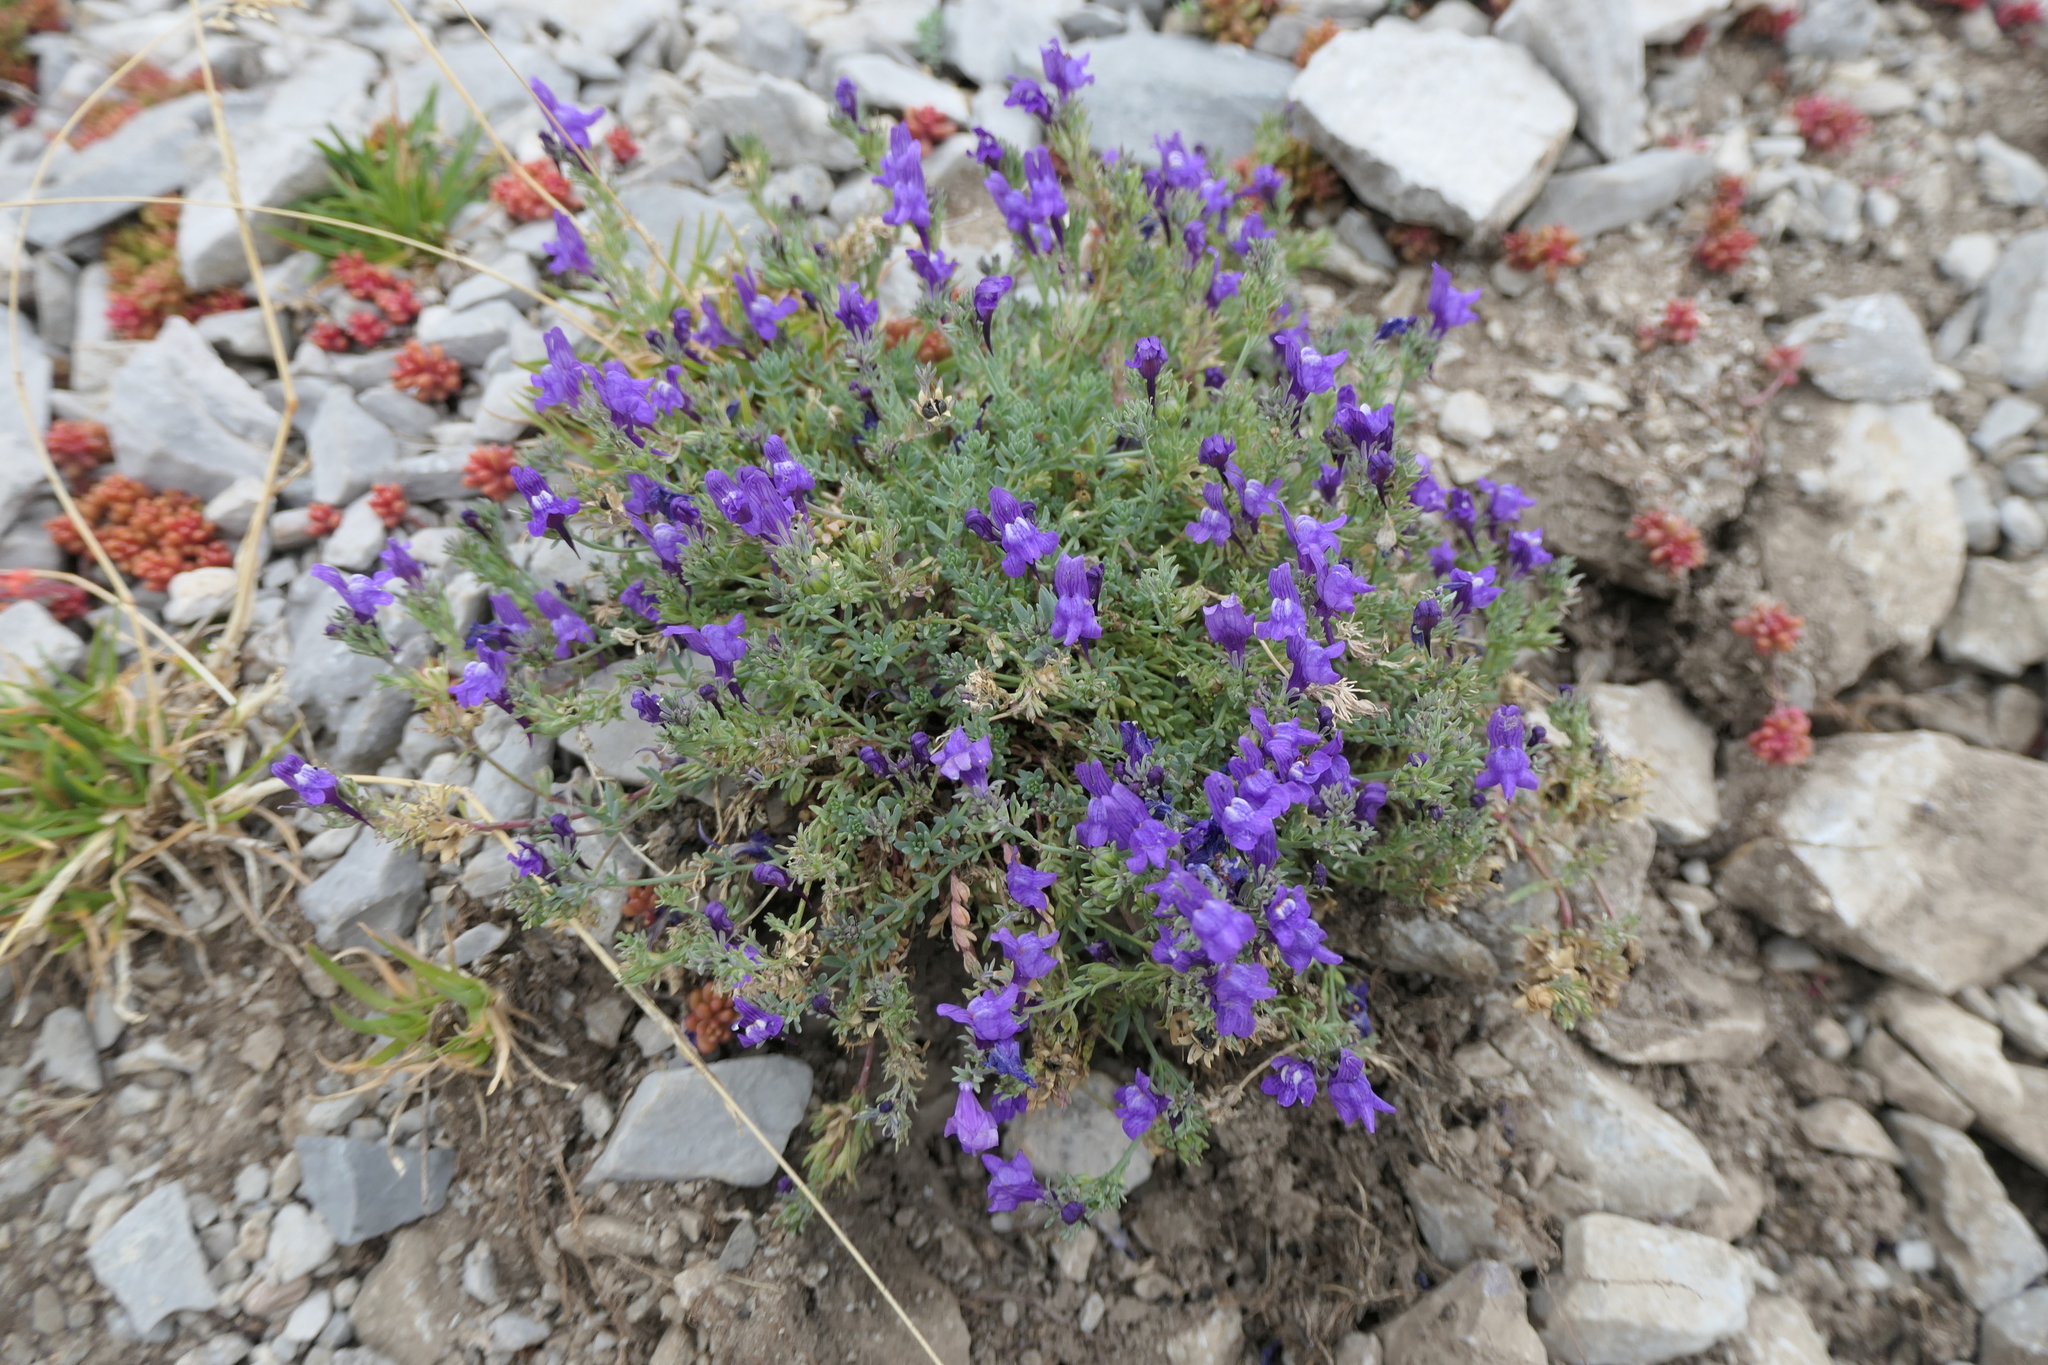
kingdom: Plantae
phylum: Tracheophyta
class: Magnoliopsida
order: Lamiales
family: Plantaginaceae
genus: Linaria
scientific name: Linaria alpina
